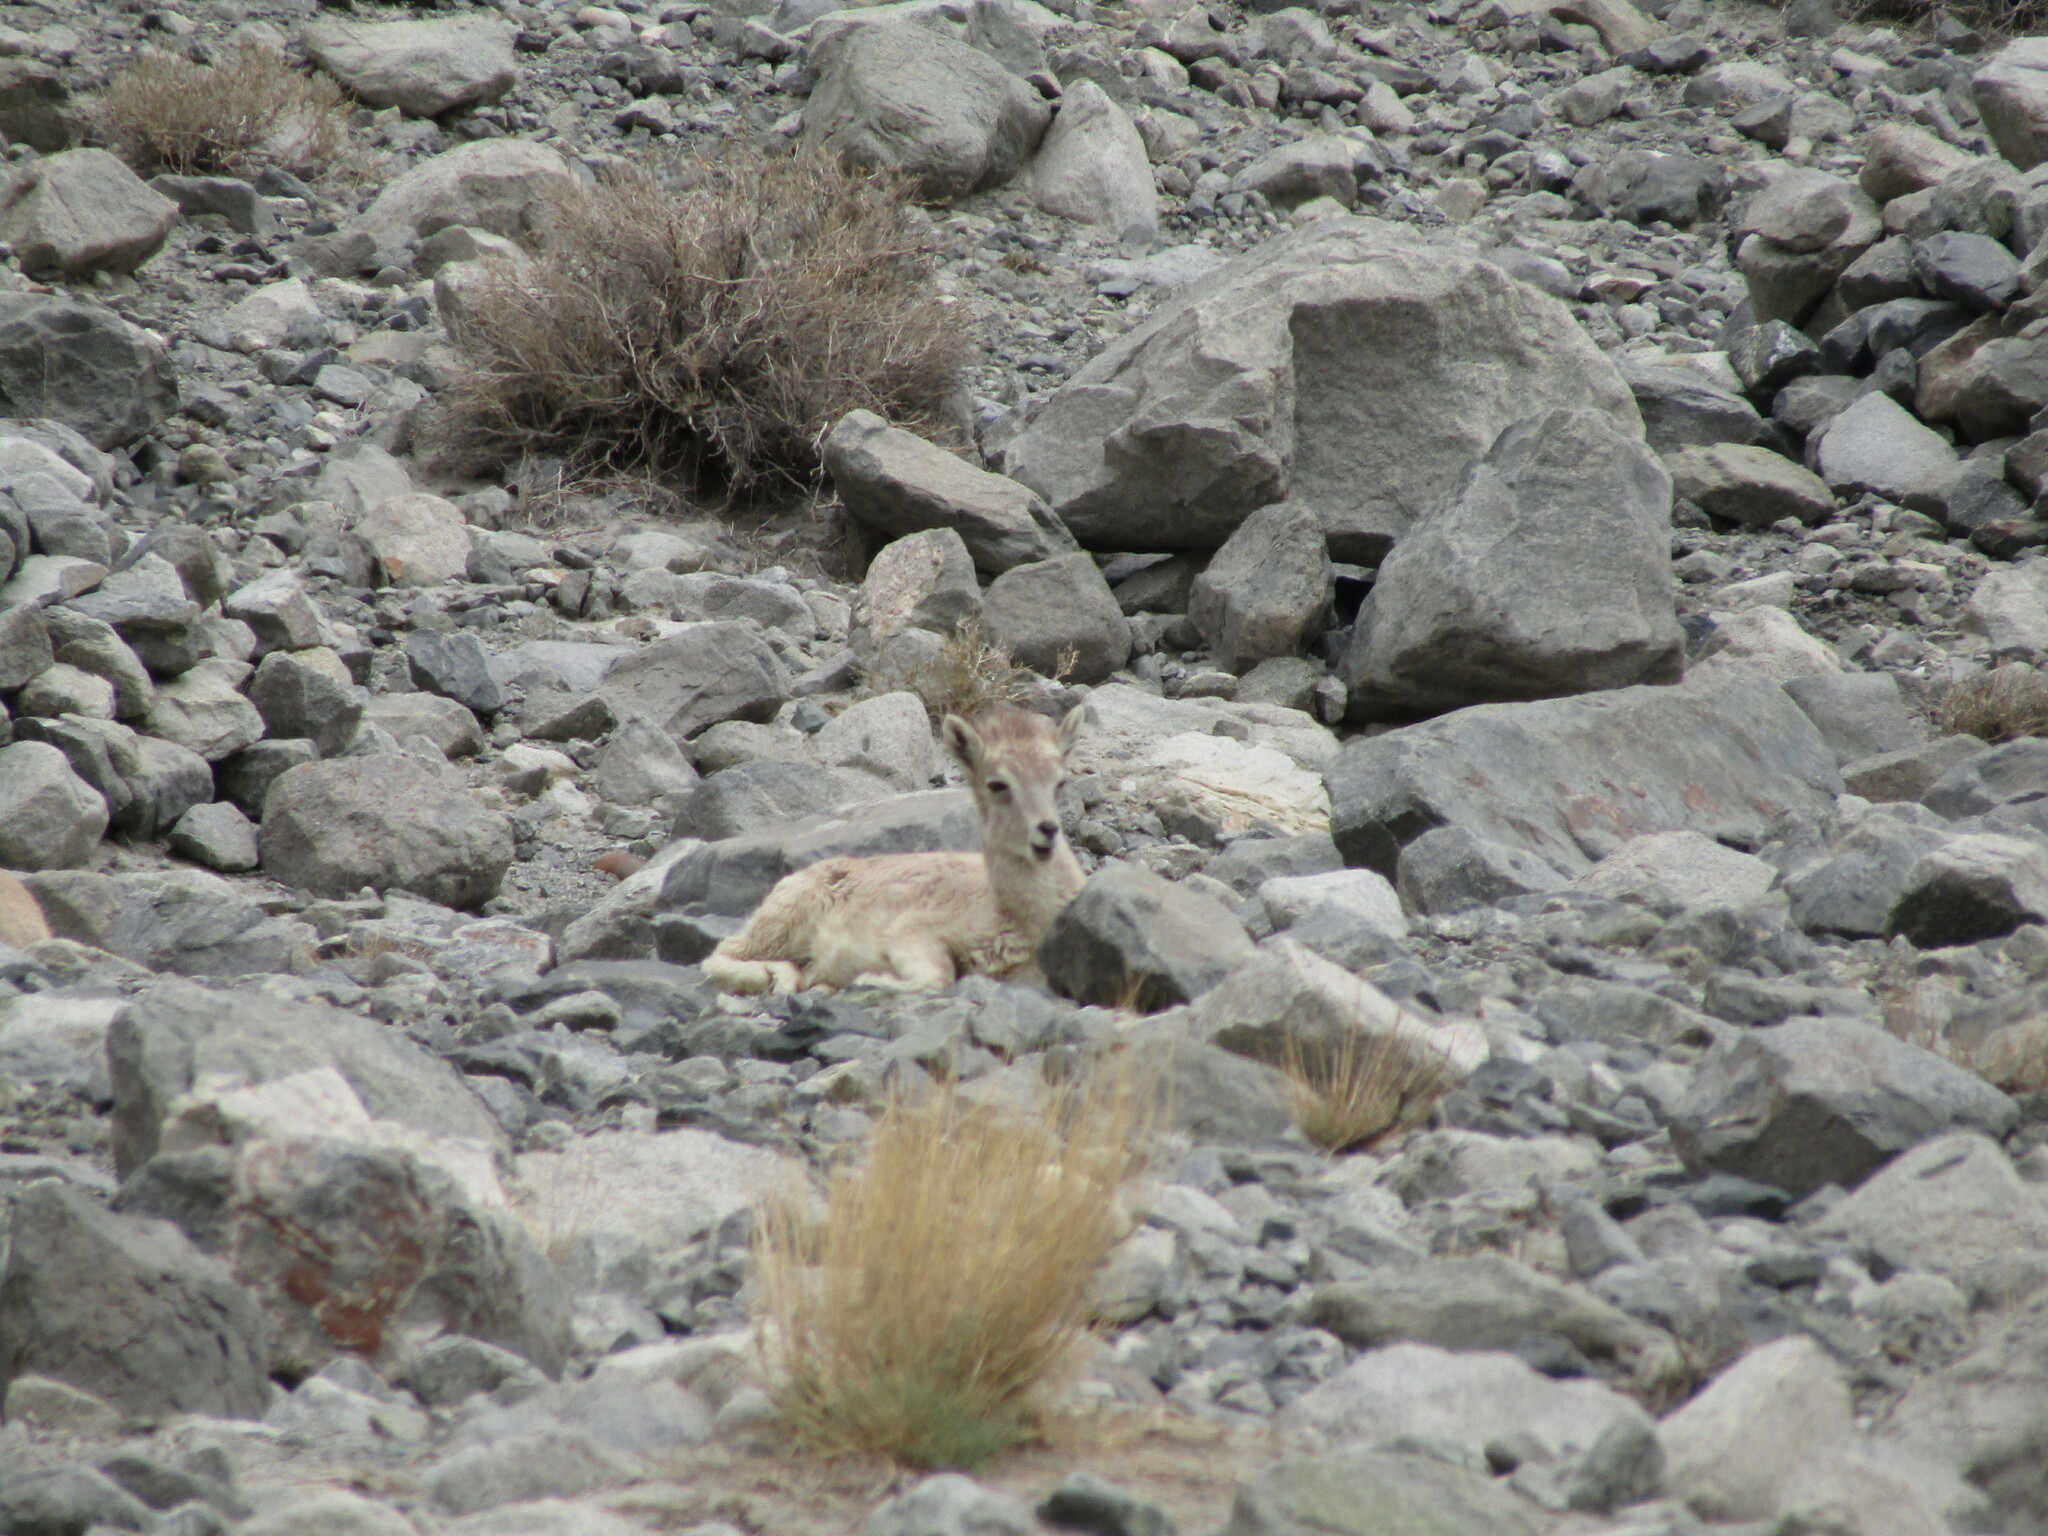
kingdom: Animalia
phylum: Chordata
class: Mammalia
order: Artiodactyla
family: Bovidae
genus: Pseudois
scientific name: Pseudois nayaur
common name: Bharal
